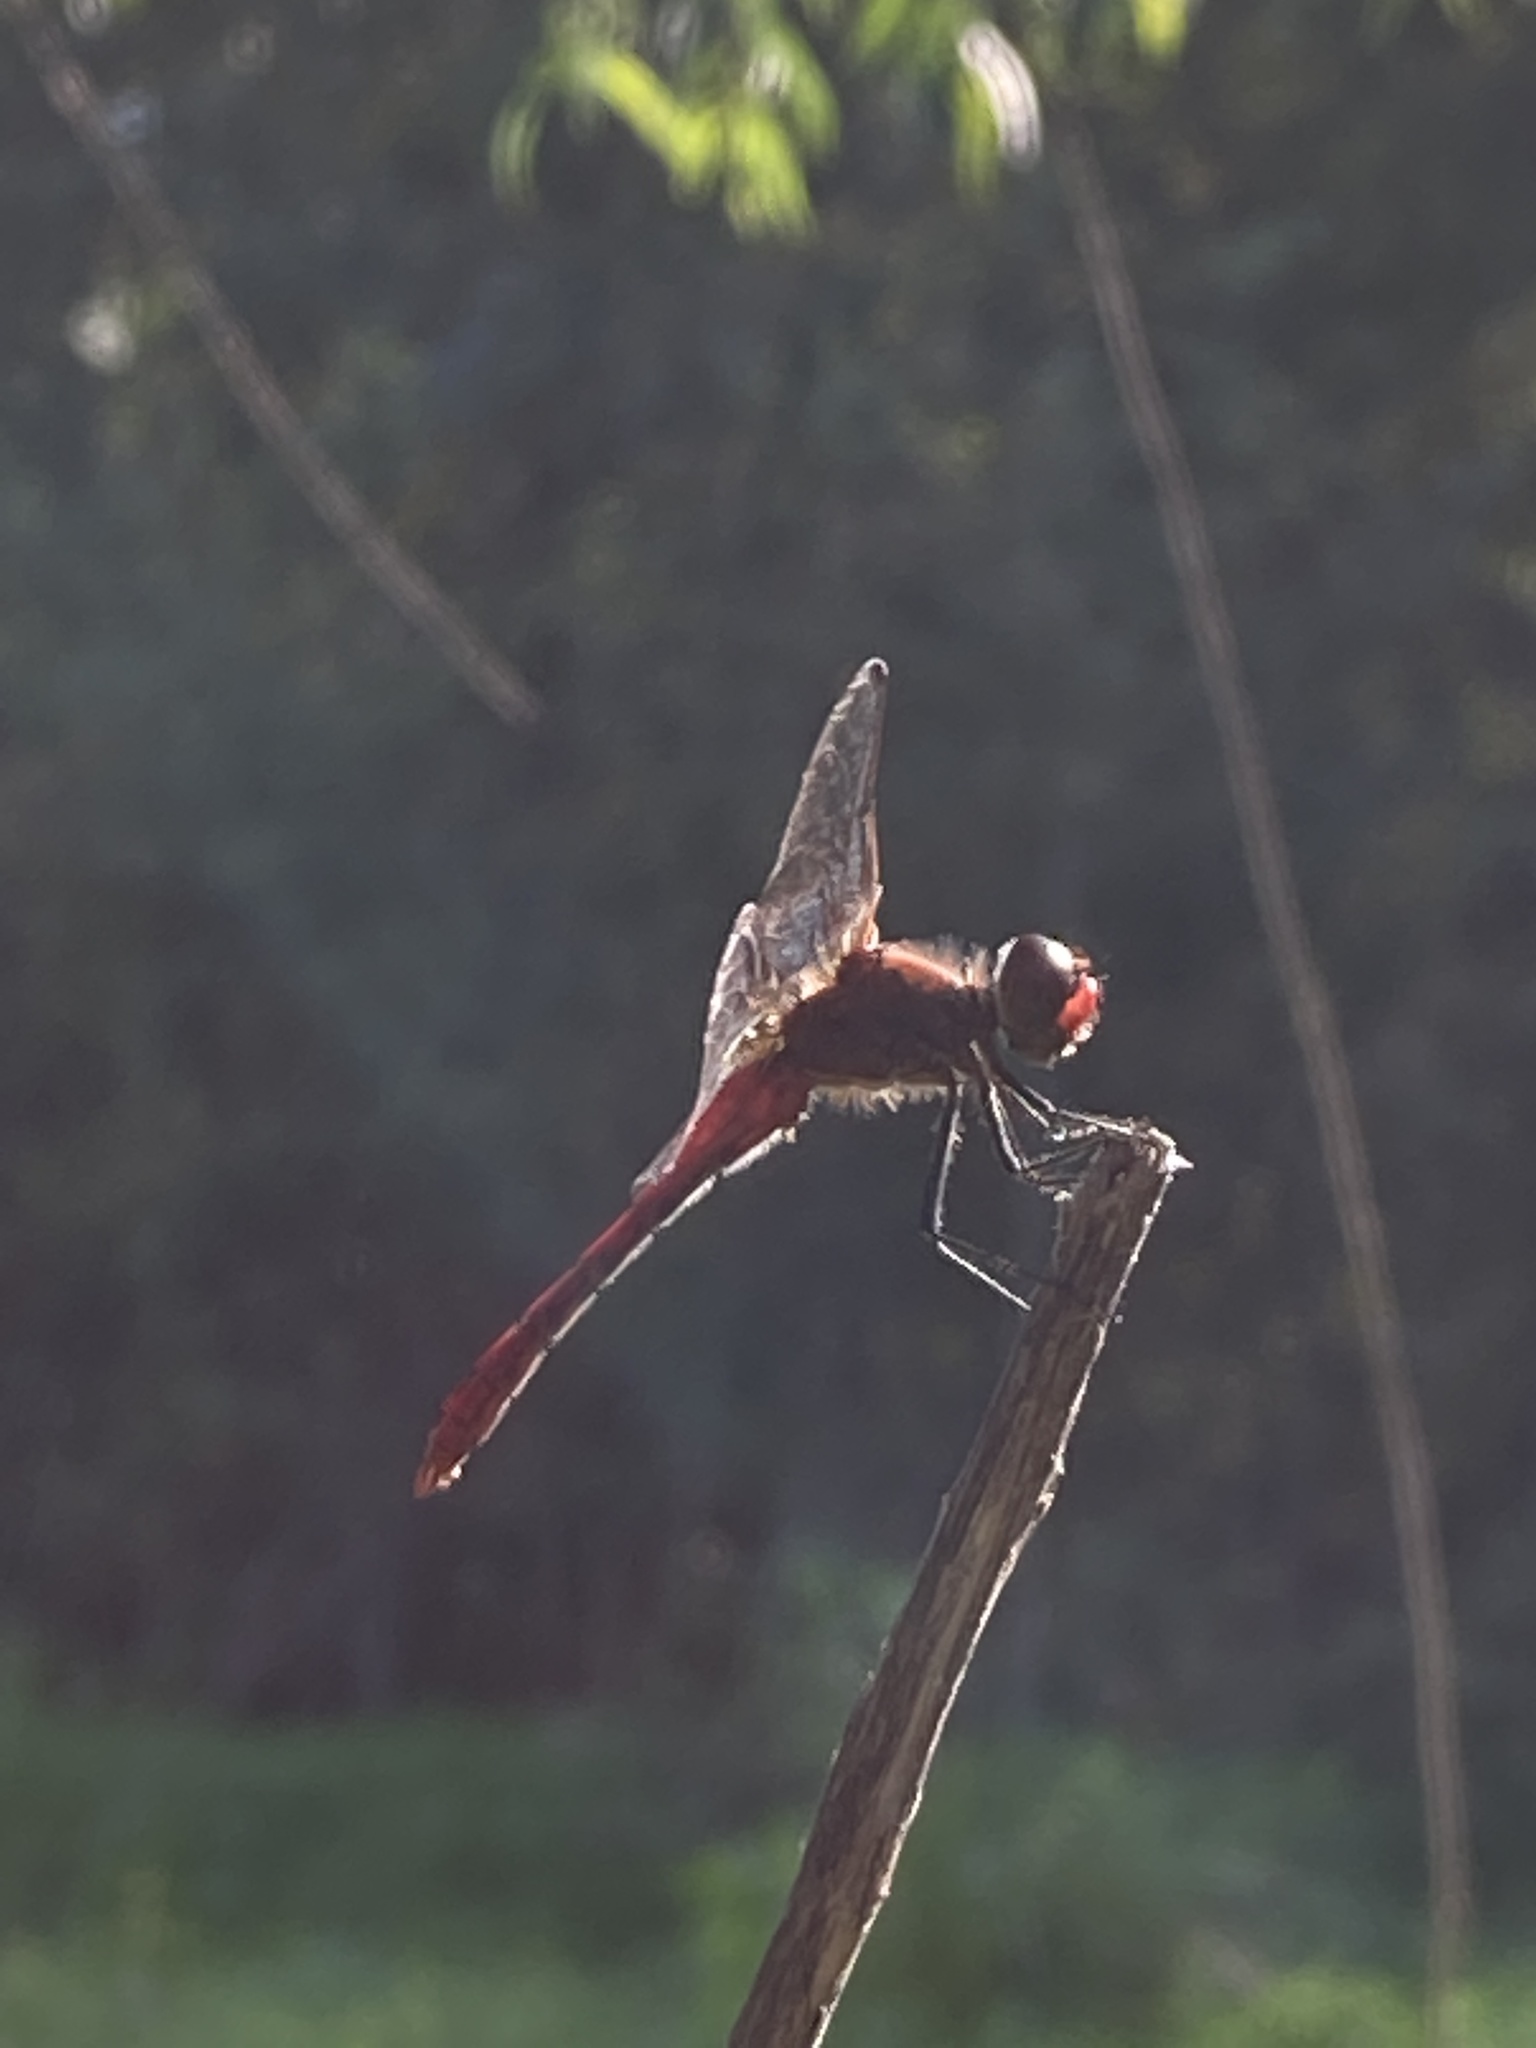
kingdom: Animalia
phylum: Arthropoda
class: Insecta
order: Odonata
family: Libellulidae
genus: Sympetrum
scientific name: Sympetrum sanguineum
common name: Ruddy darter
